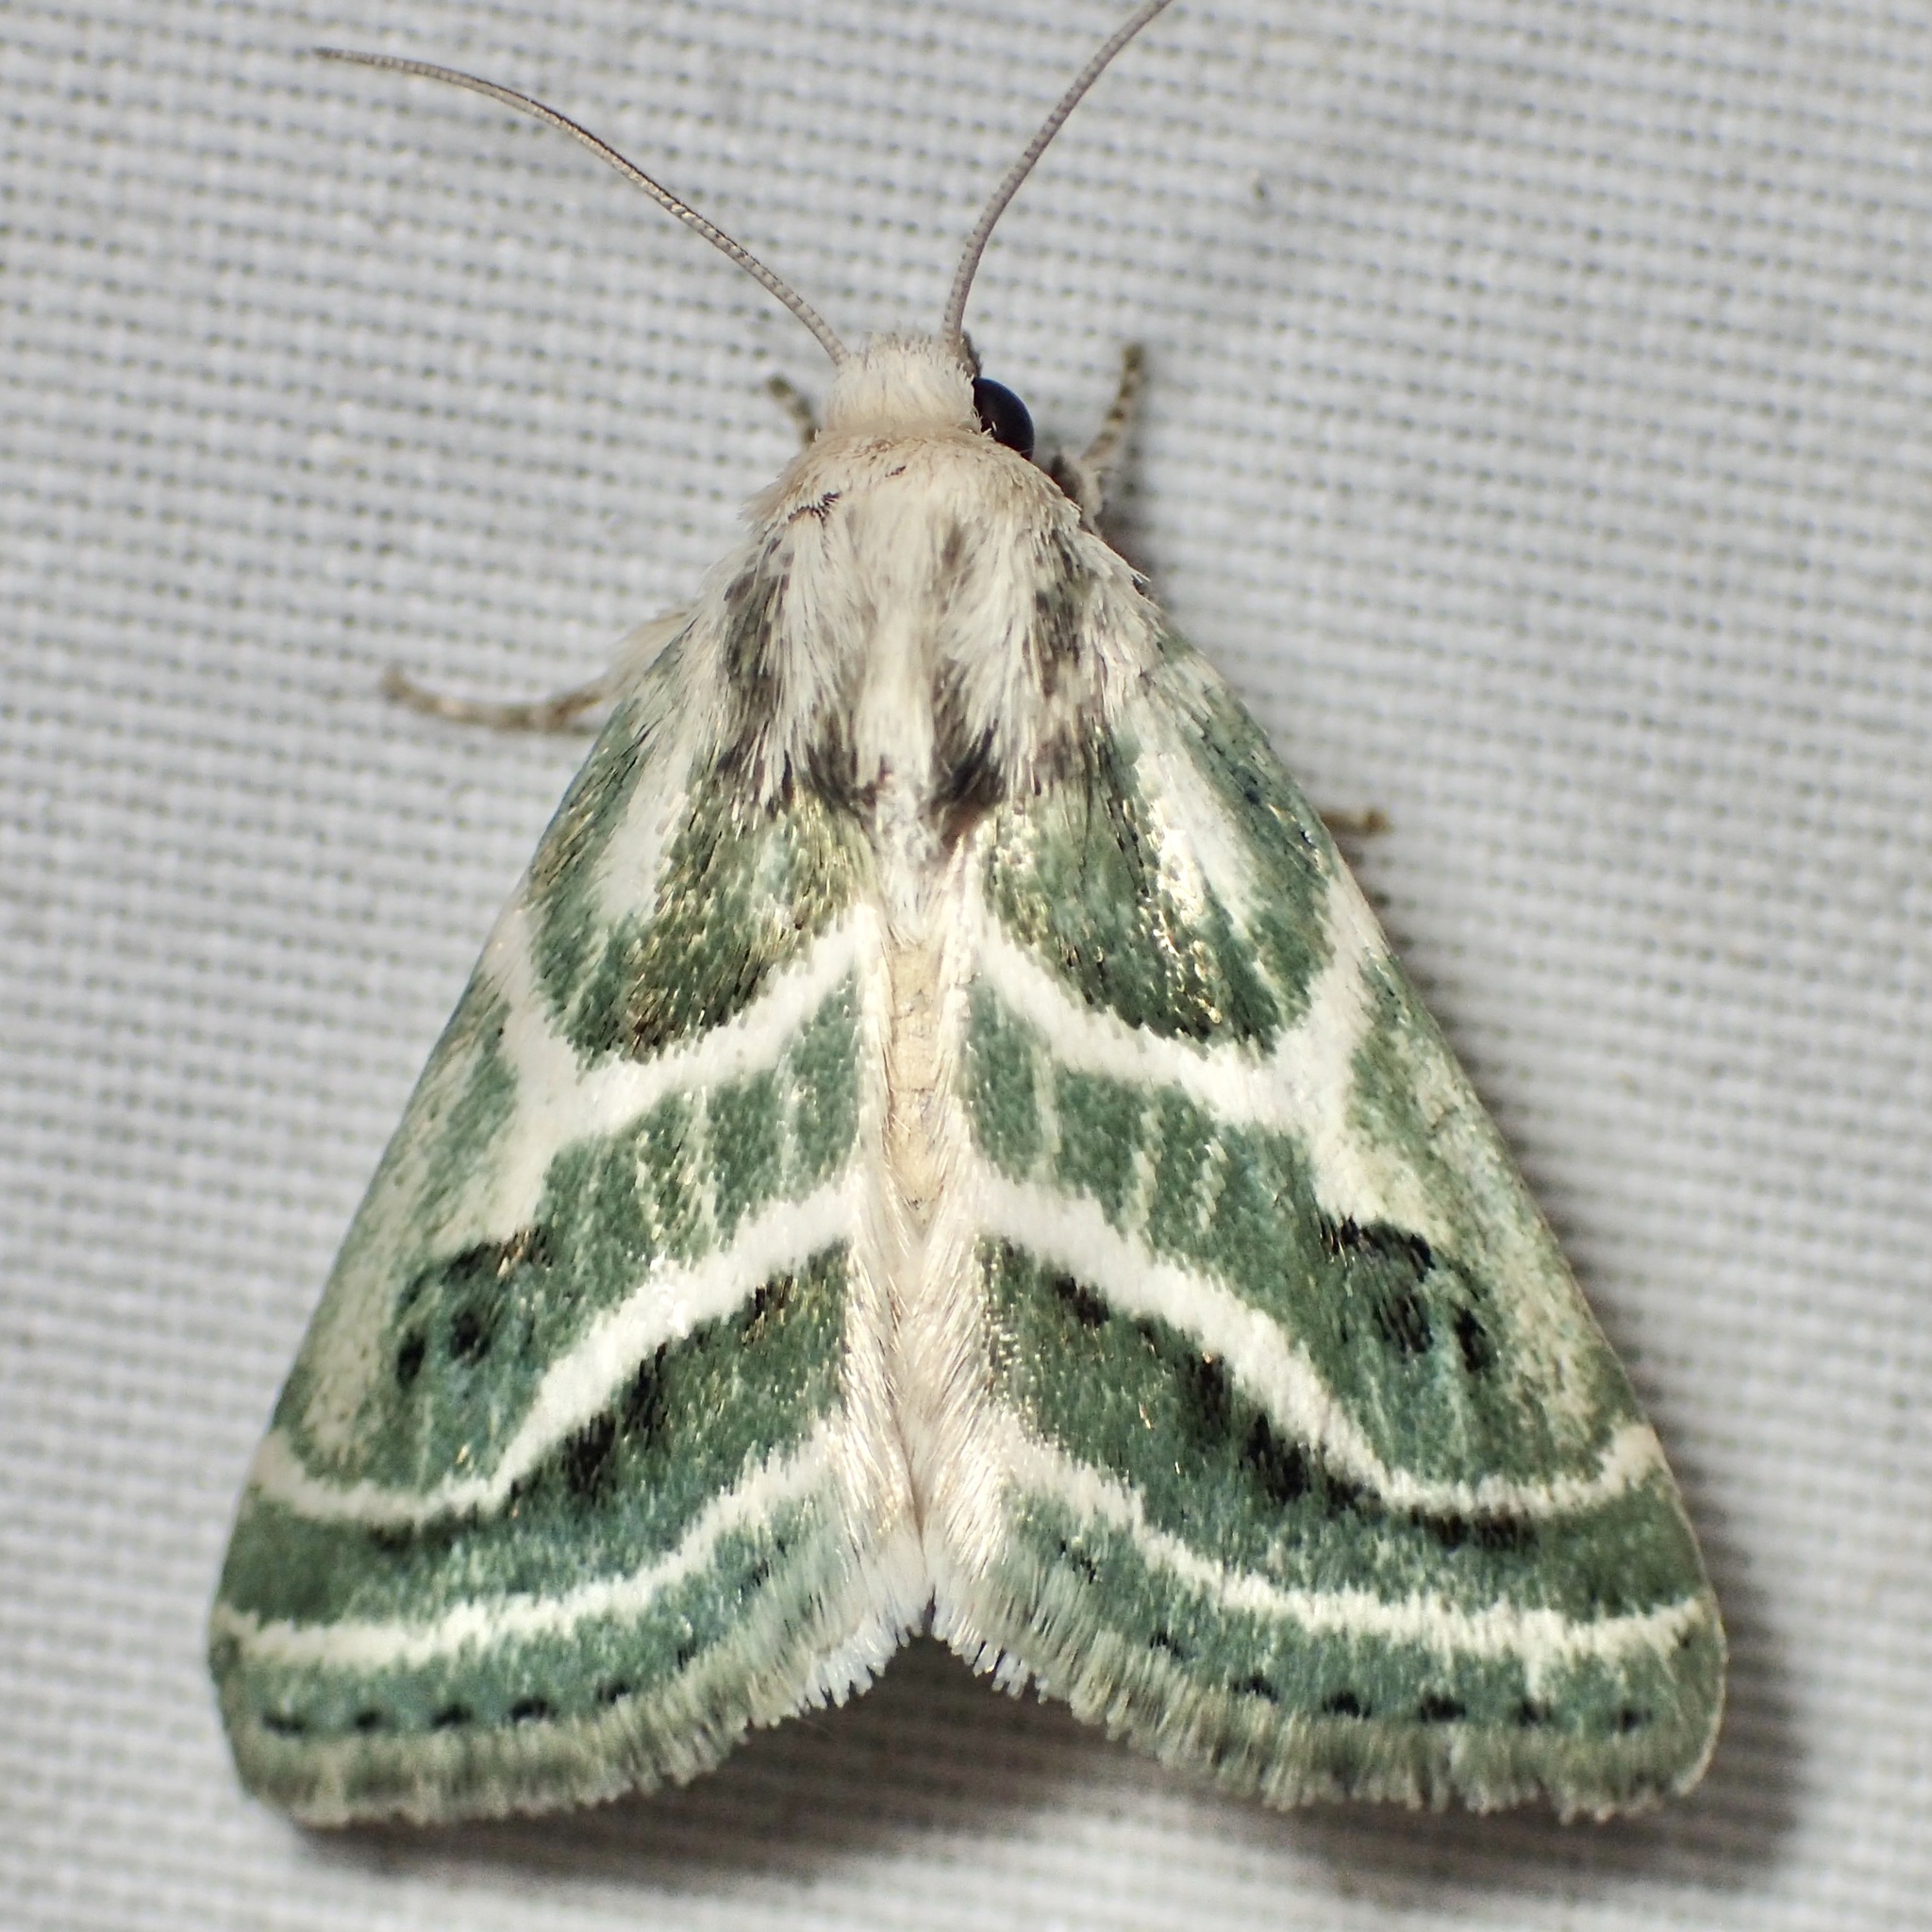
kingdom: Animalia
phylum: Arthropoda
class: Insecta
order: Lepidoptera
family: Noctuidae
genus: Schinia
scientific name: Schinia accessa
